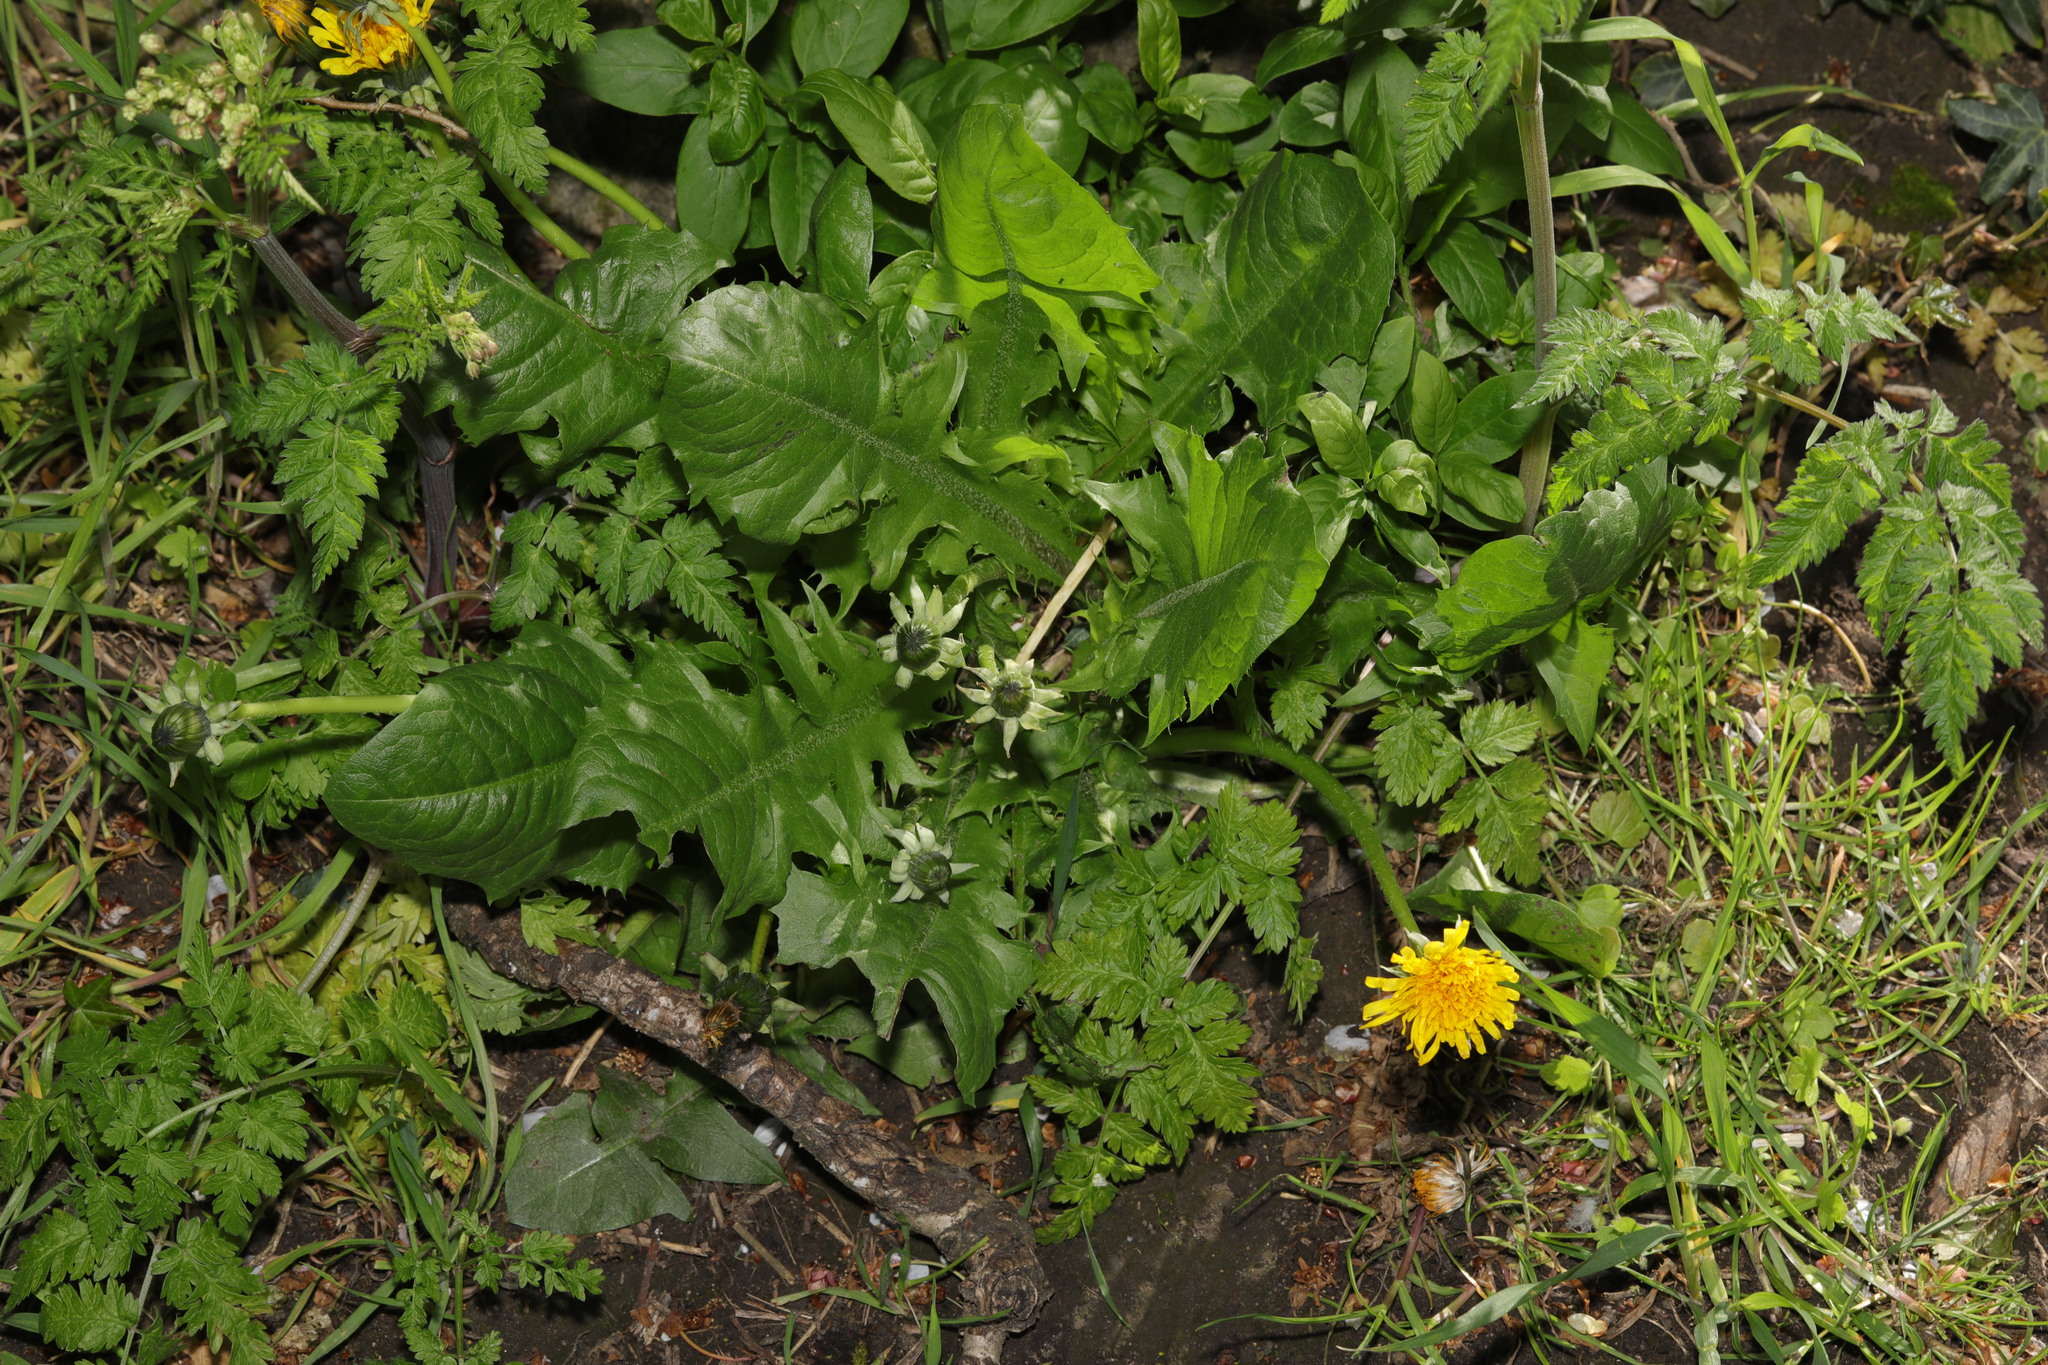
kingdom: Plantae
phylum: Tracheophyta
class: Magnoliopsida
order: Asterales
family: Asteraceae
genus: Taraxacum
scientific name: Taraxacum officinale
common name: Common dandelion
